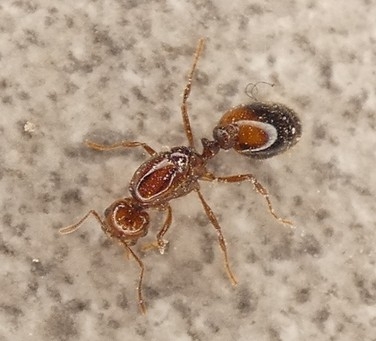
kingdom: Animalia
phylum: Arthropoda
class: Insecta
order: Hymenoptera
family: Formicidae
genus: Solenopsis
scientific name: Solenopsis invicta
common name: Red imported fire ant
